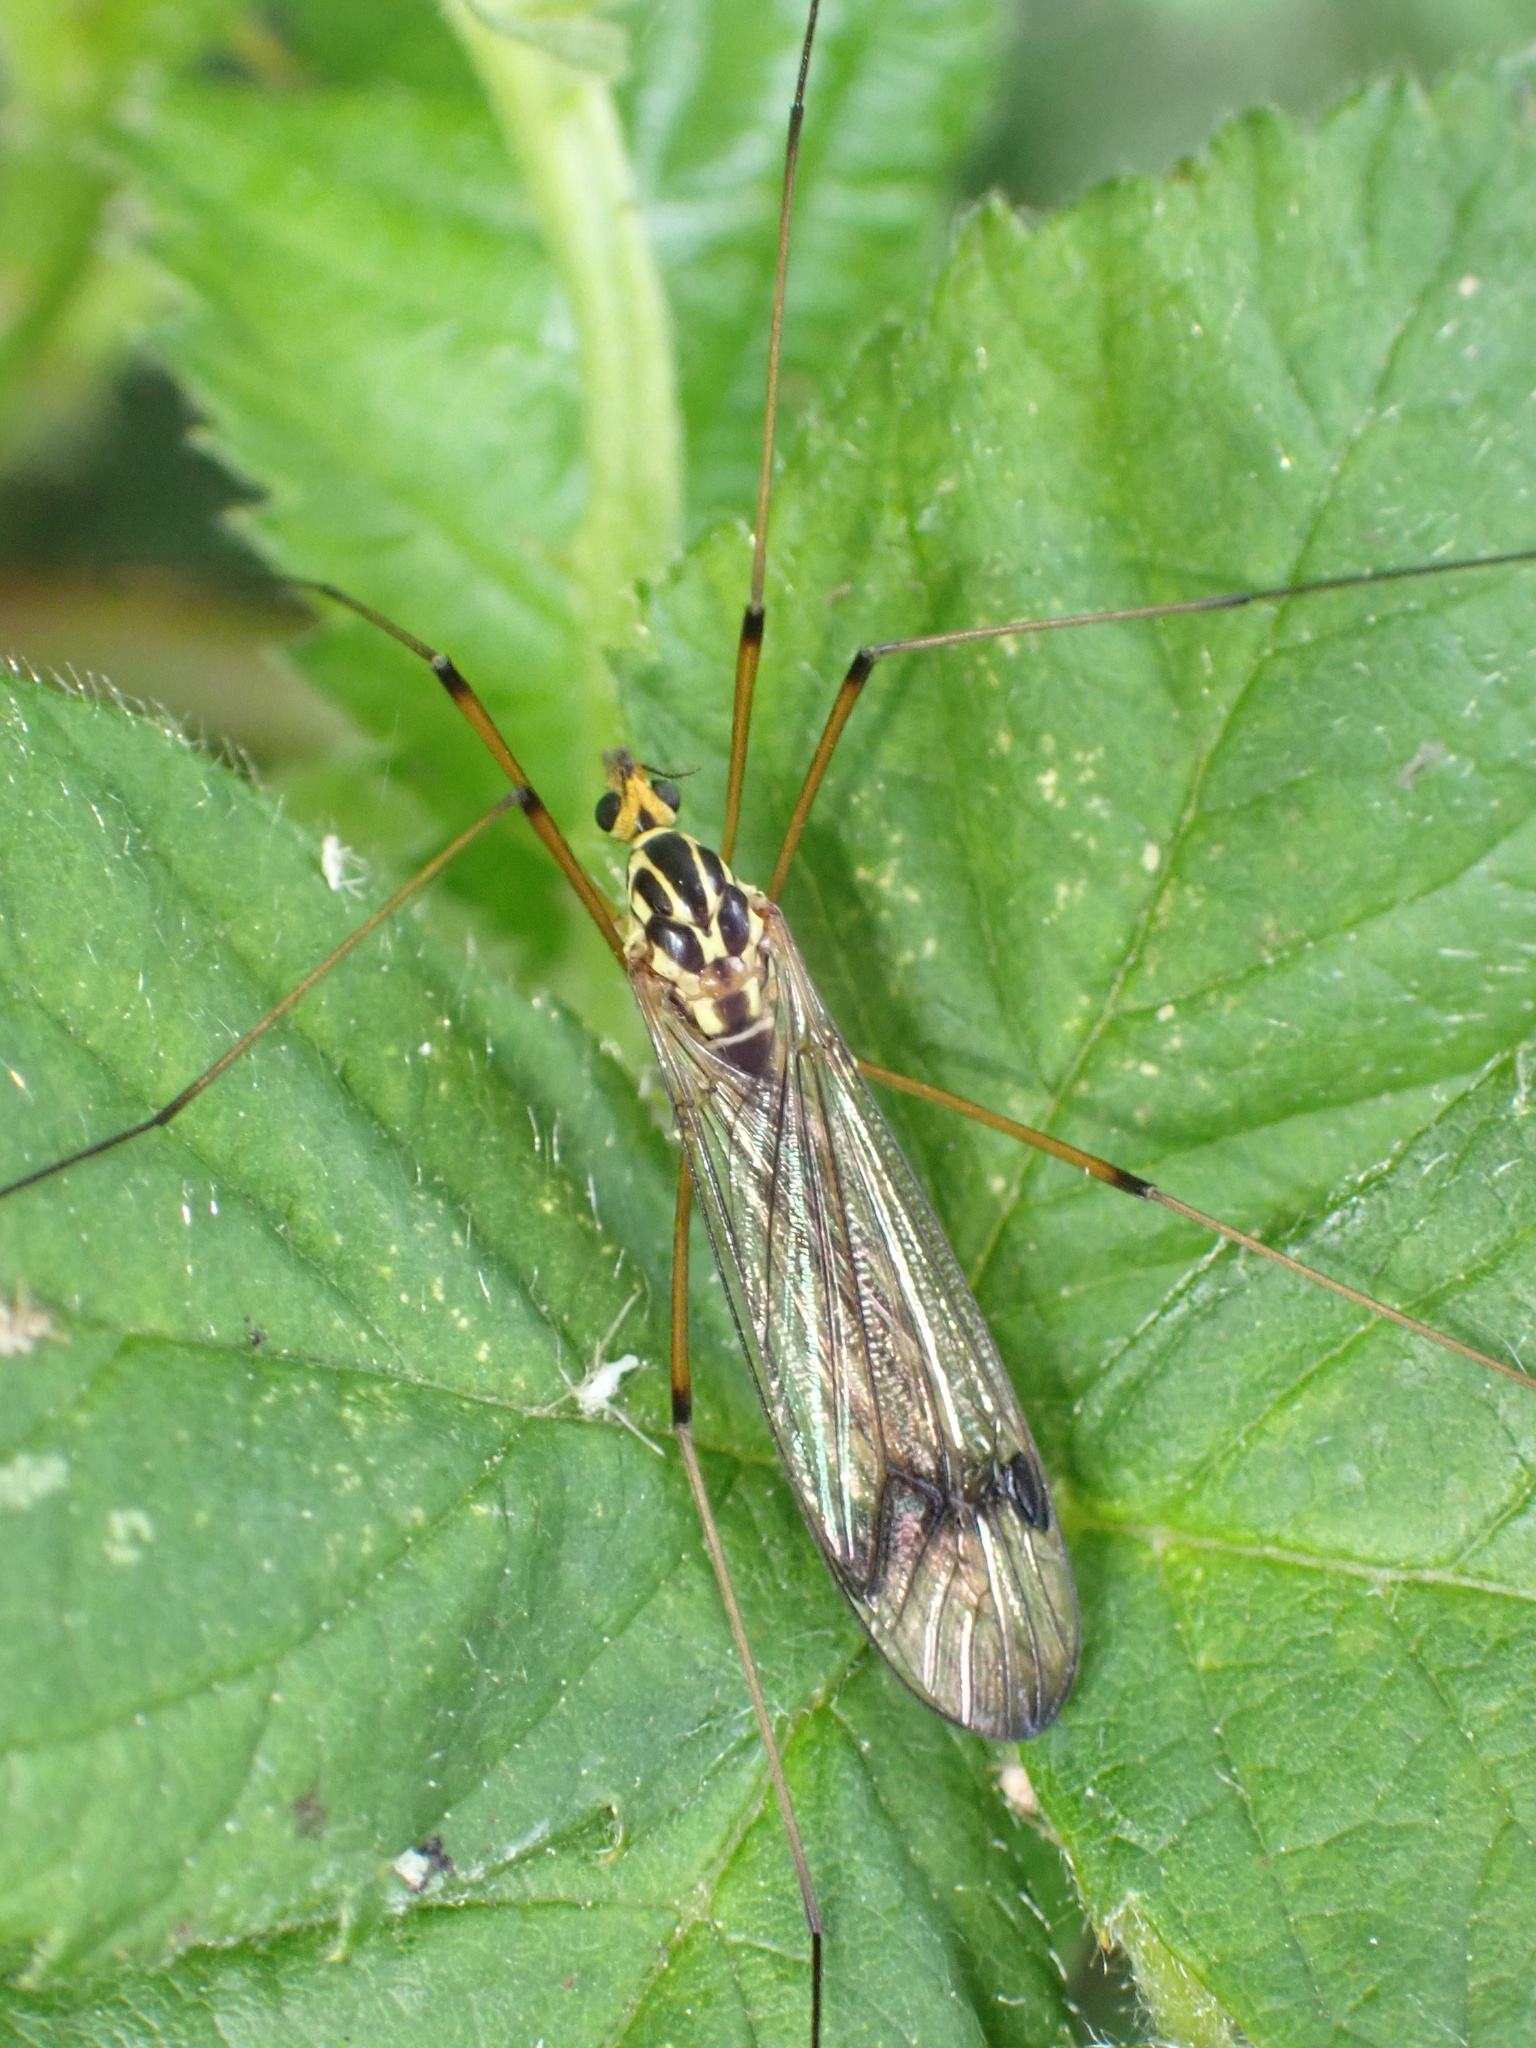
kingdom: Animalia
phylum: Arthropoda
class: Insecta
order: Diptera
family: Tipulidae
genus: Nephrotoma
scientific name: Nephrotoma quadrifaria
